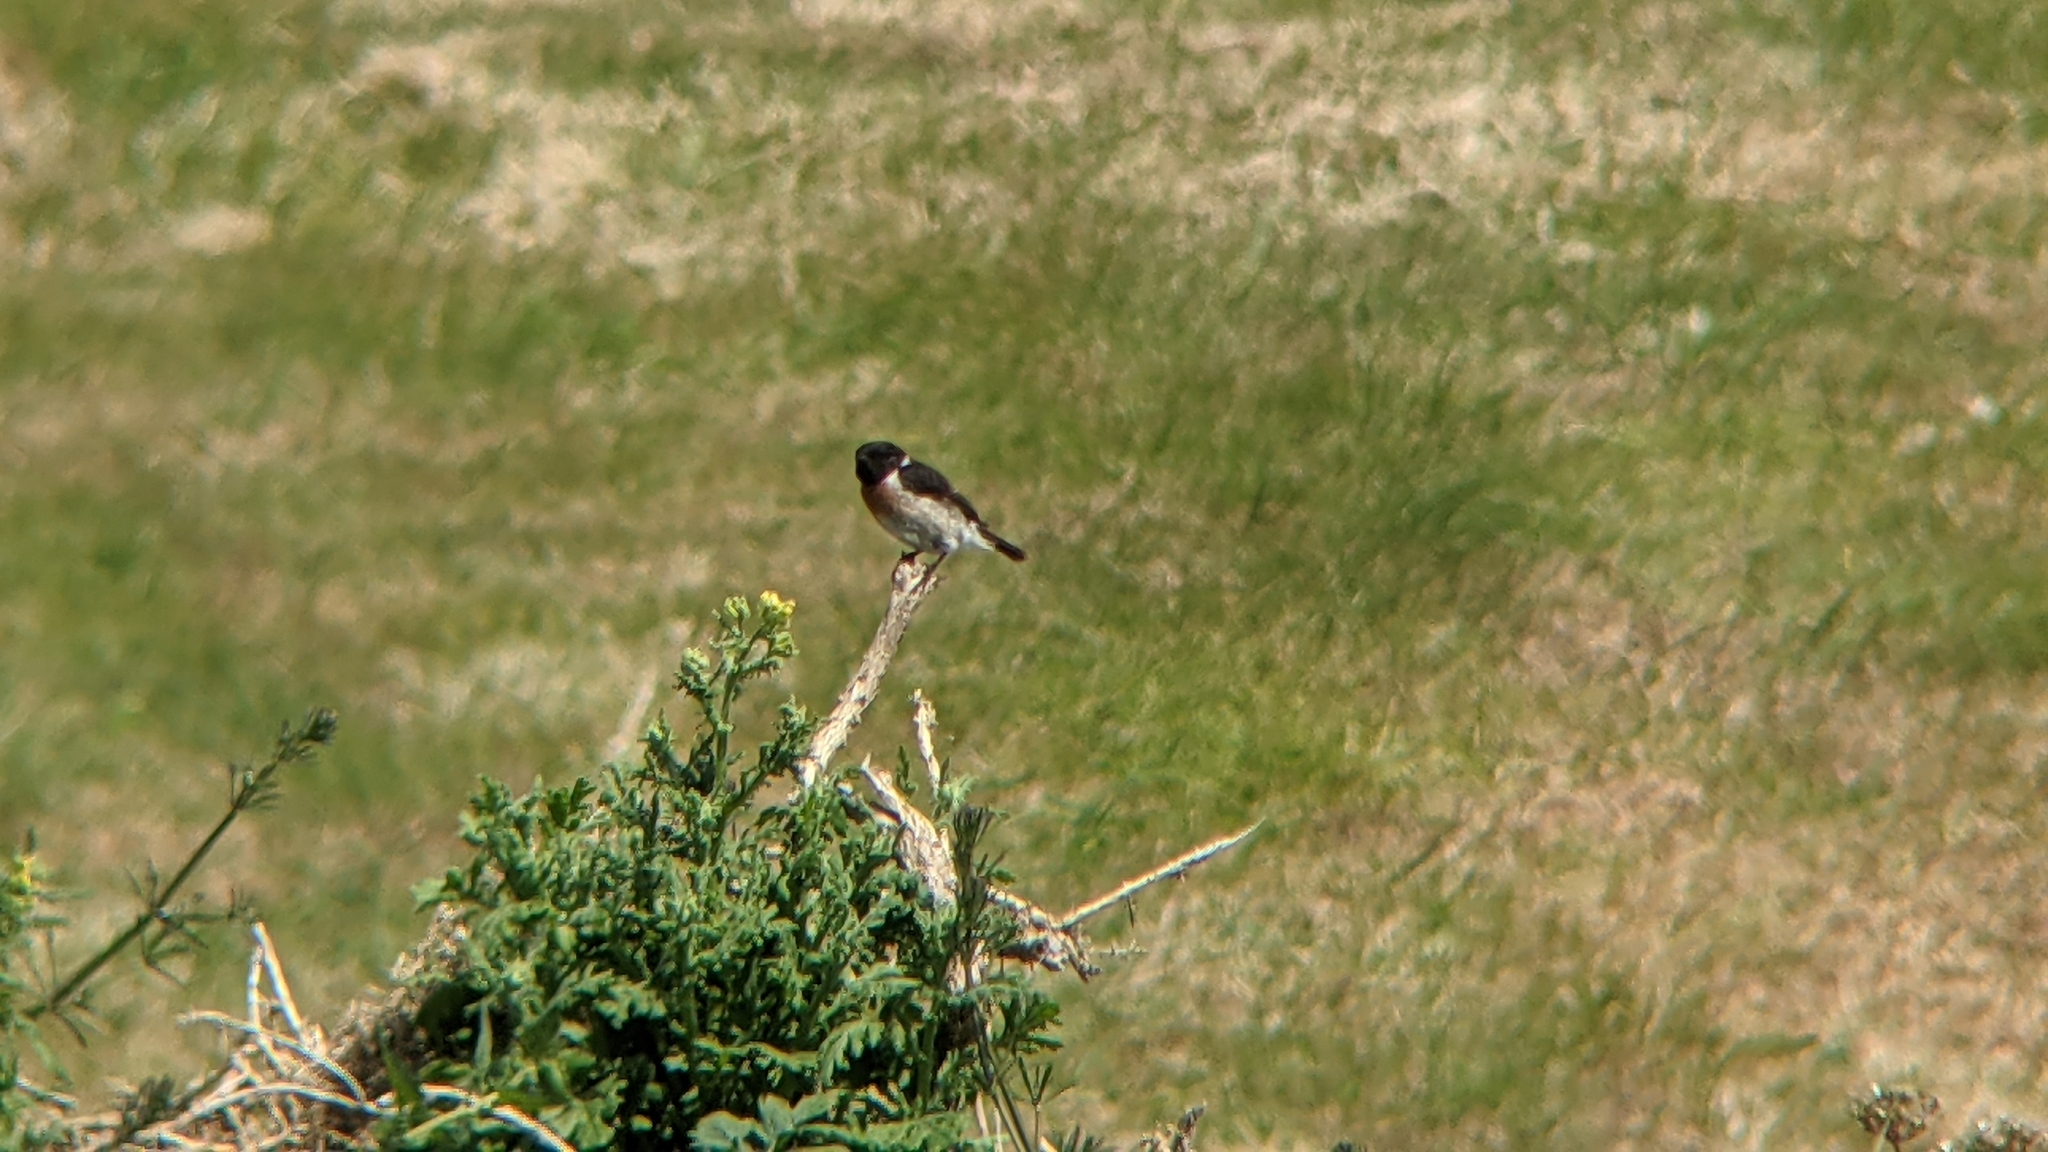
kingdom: Animalia
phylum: Chordata
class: Aves
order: Passeriformes
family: Muscicapidae
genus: Saxicola
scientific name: Saxicola rubicola
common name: European stonechat
